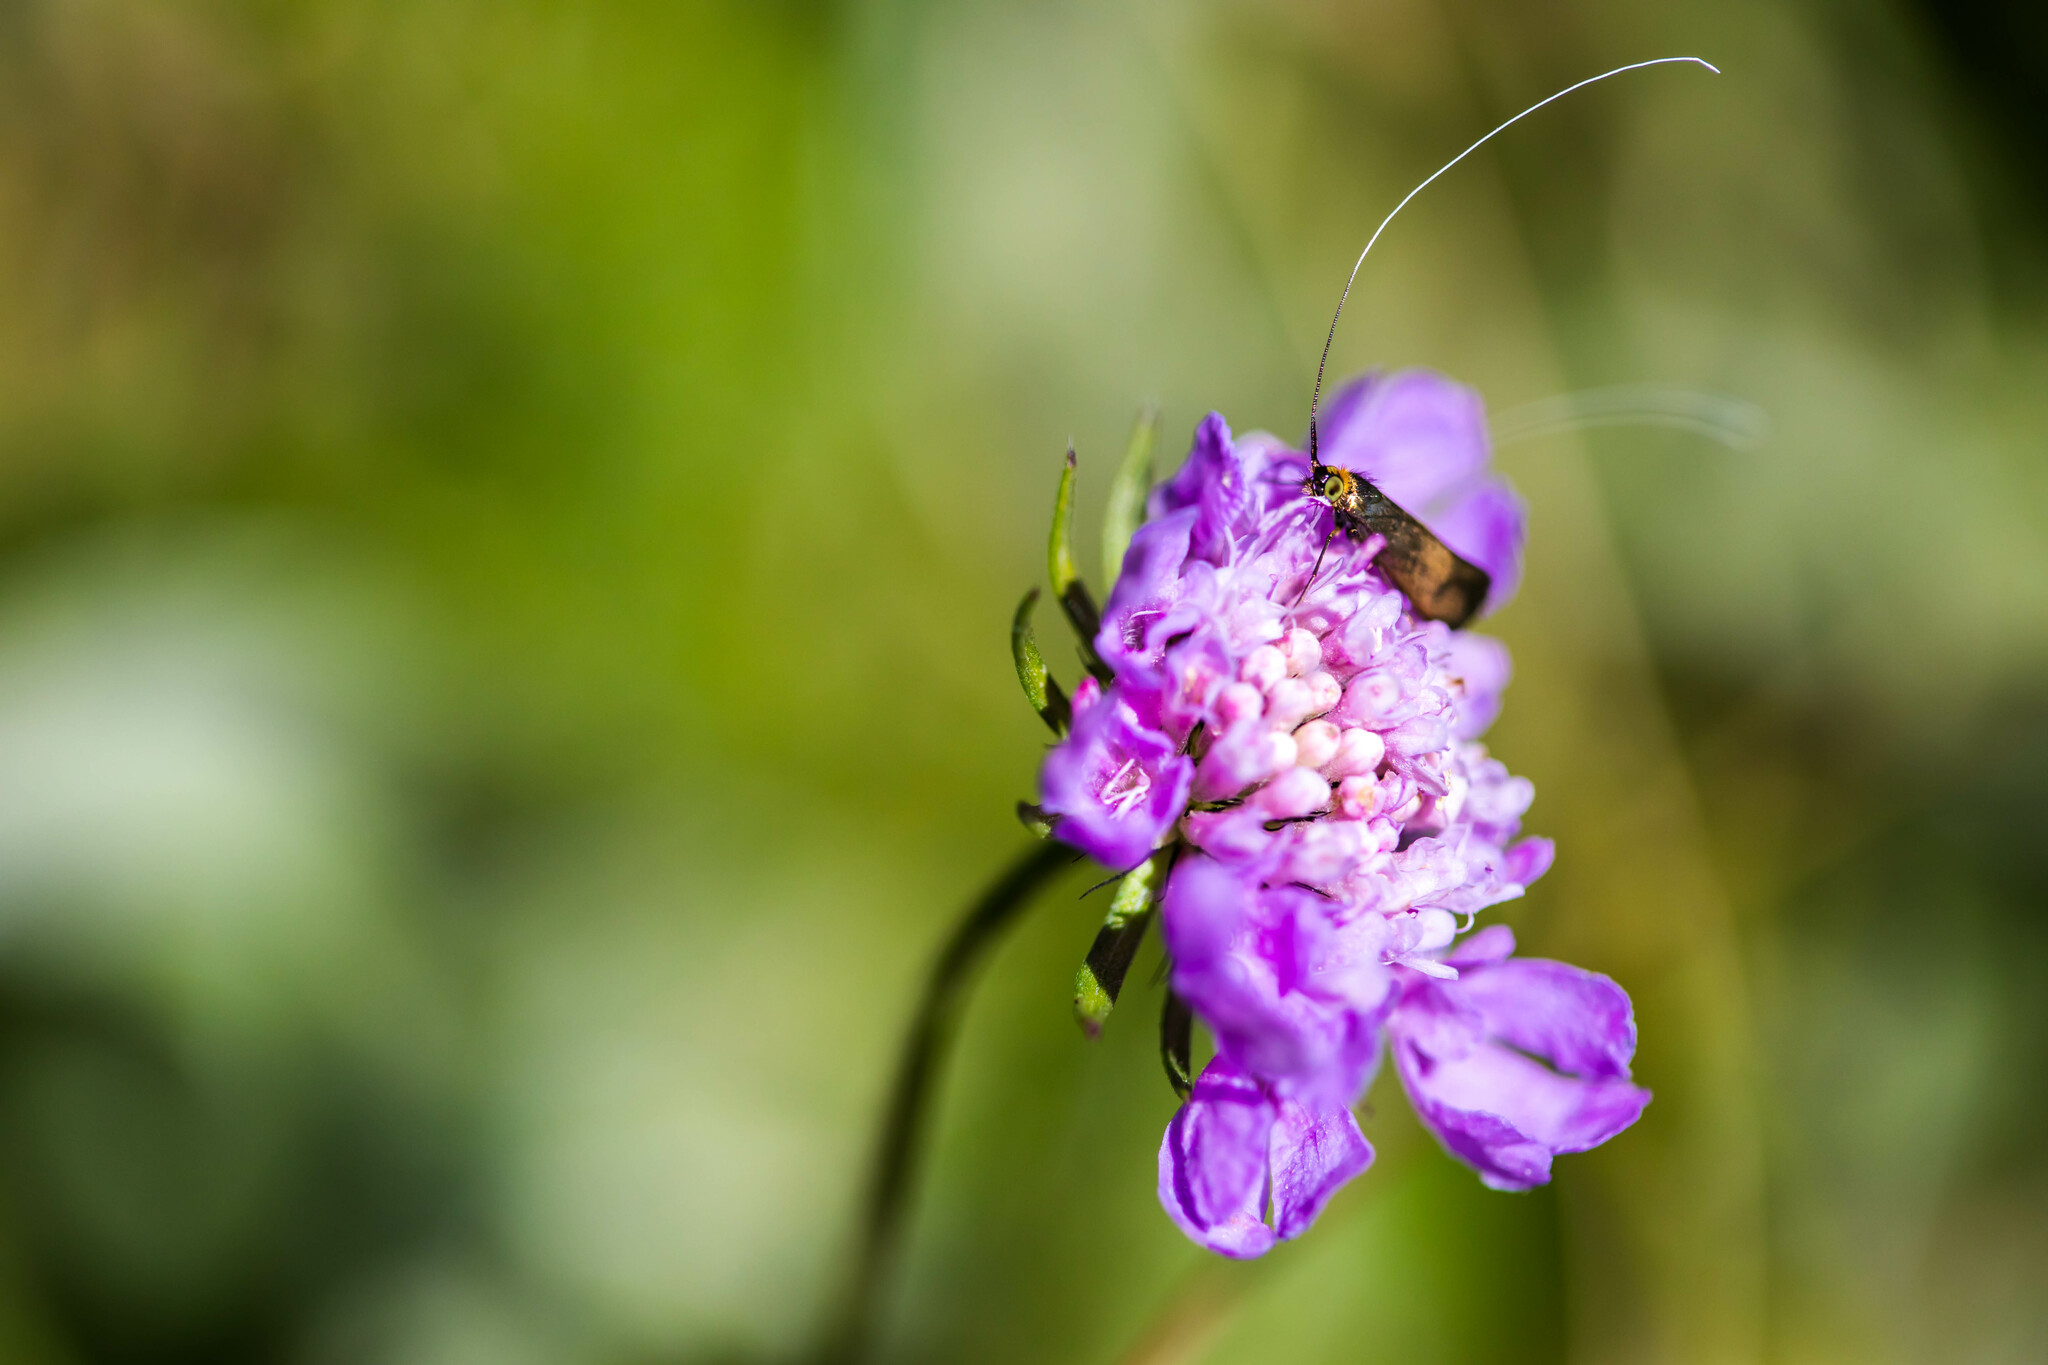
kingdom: Animalia
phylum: Arthropoda
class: Insecta
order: Lepidoptera
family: Adelidae
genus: Nemophora
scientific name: Nemophora metallica
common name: Brassy long-horn
